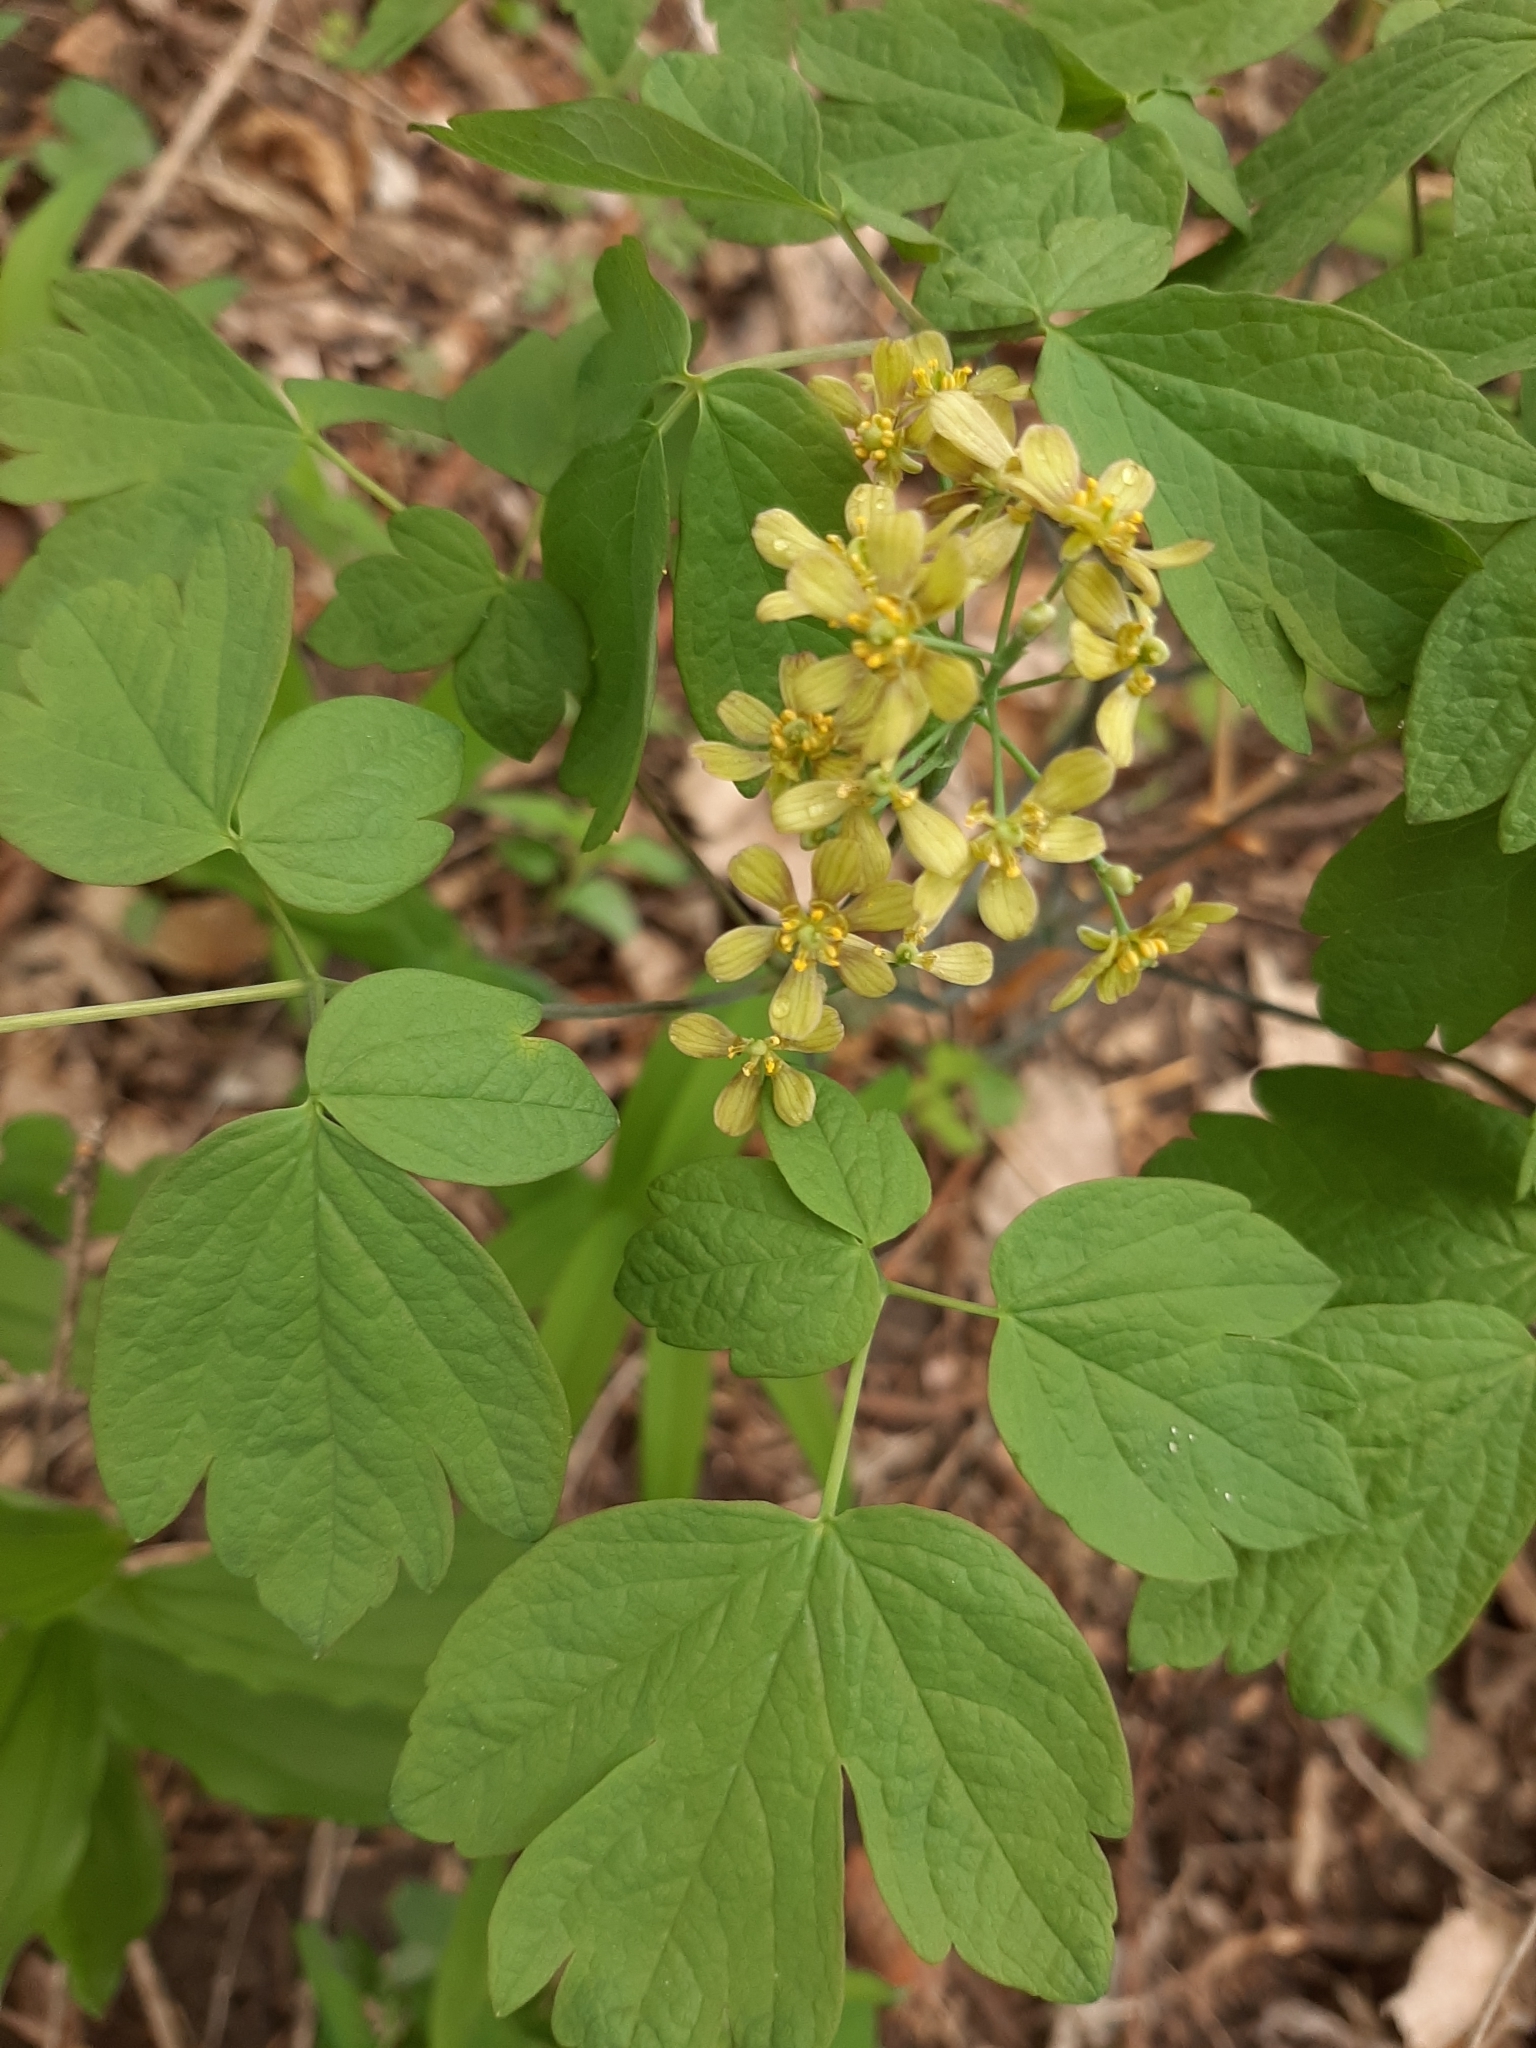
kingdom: Plantae
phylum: Tracheophyta
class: Magnoliopsida
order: Ranunculales
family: Berberidaceae
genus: Caulophyllum
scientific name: Caulophyllum thalictroides
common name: Blue cohosh
